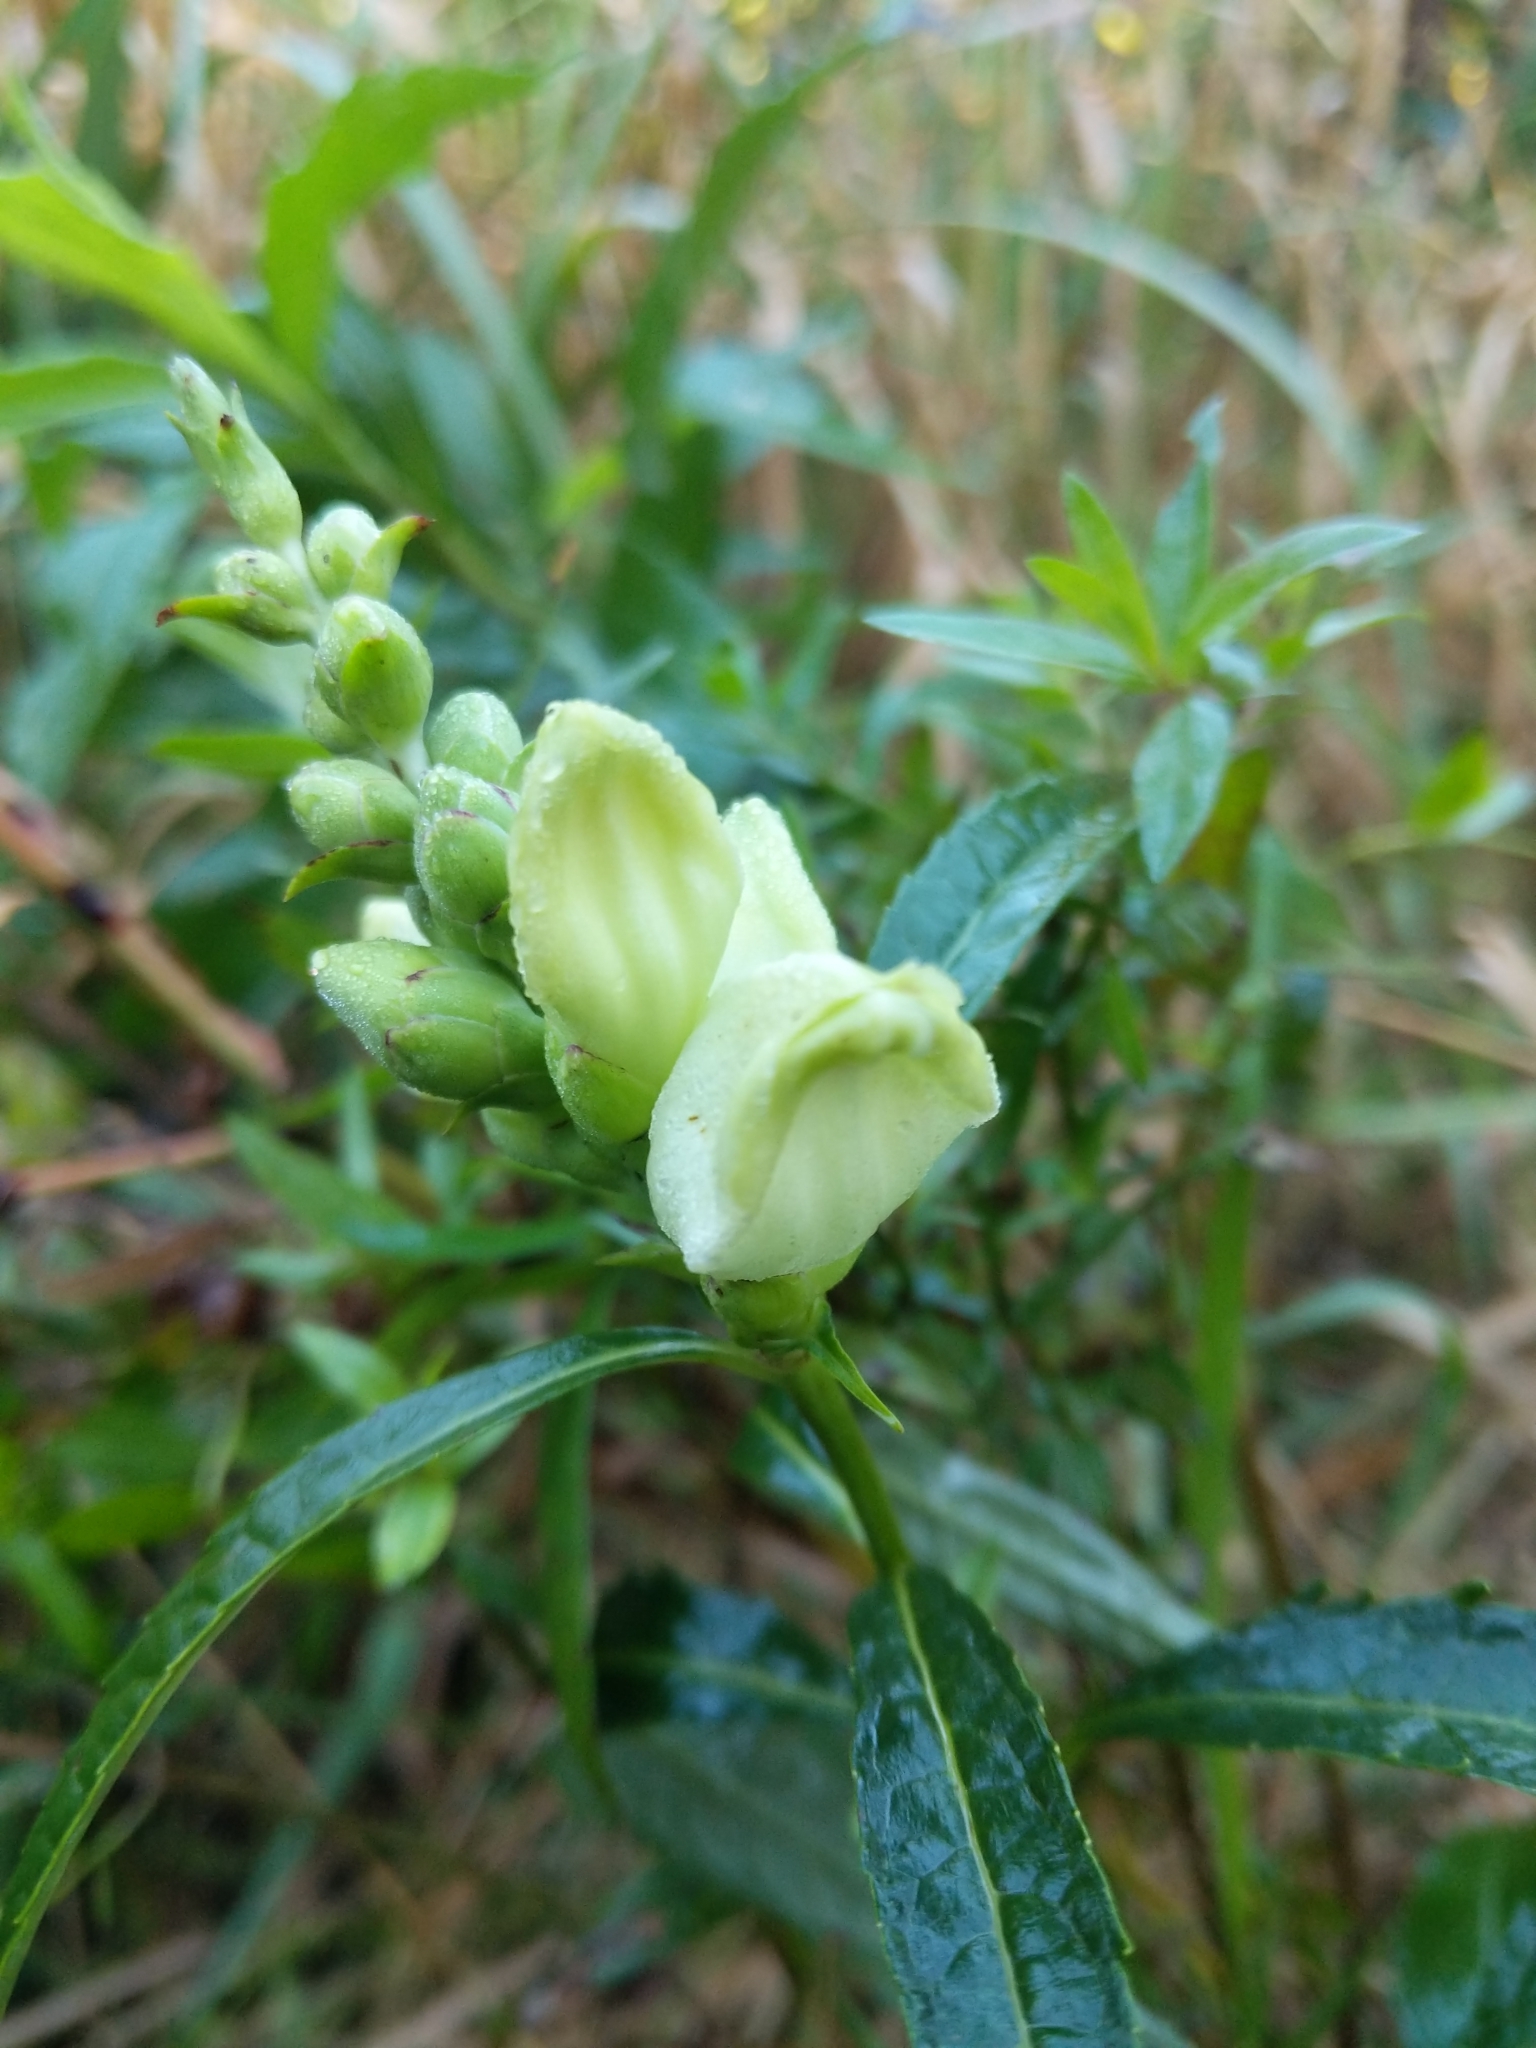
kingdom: Plantae
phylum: Tracheophyta
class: Magnoliopsida
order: Lamiales
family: Plantaginaceae
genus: Chelone
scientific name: Chelone glabra
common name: Snakehead
